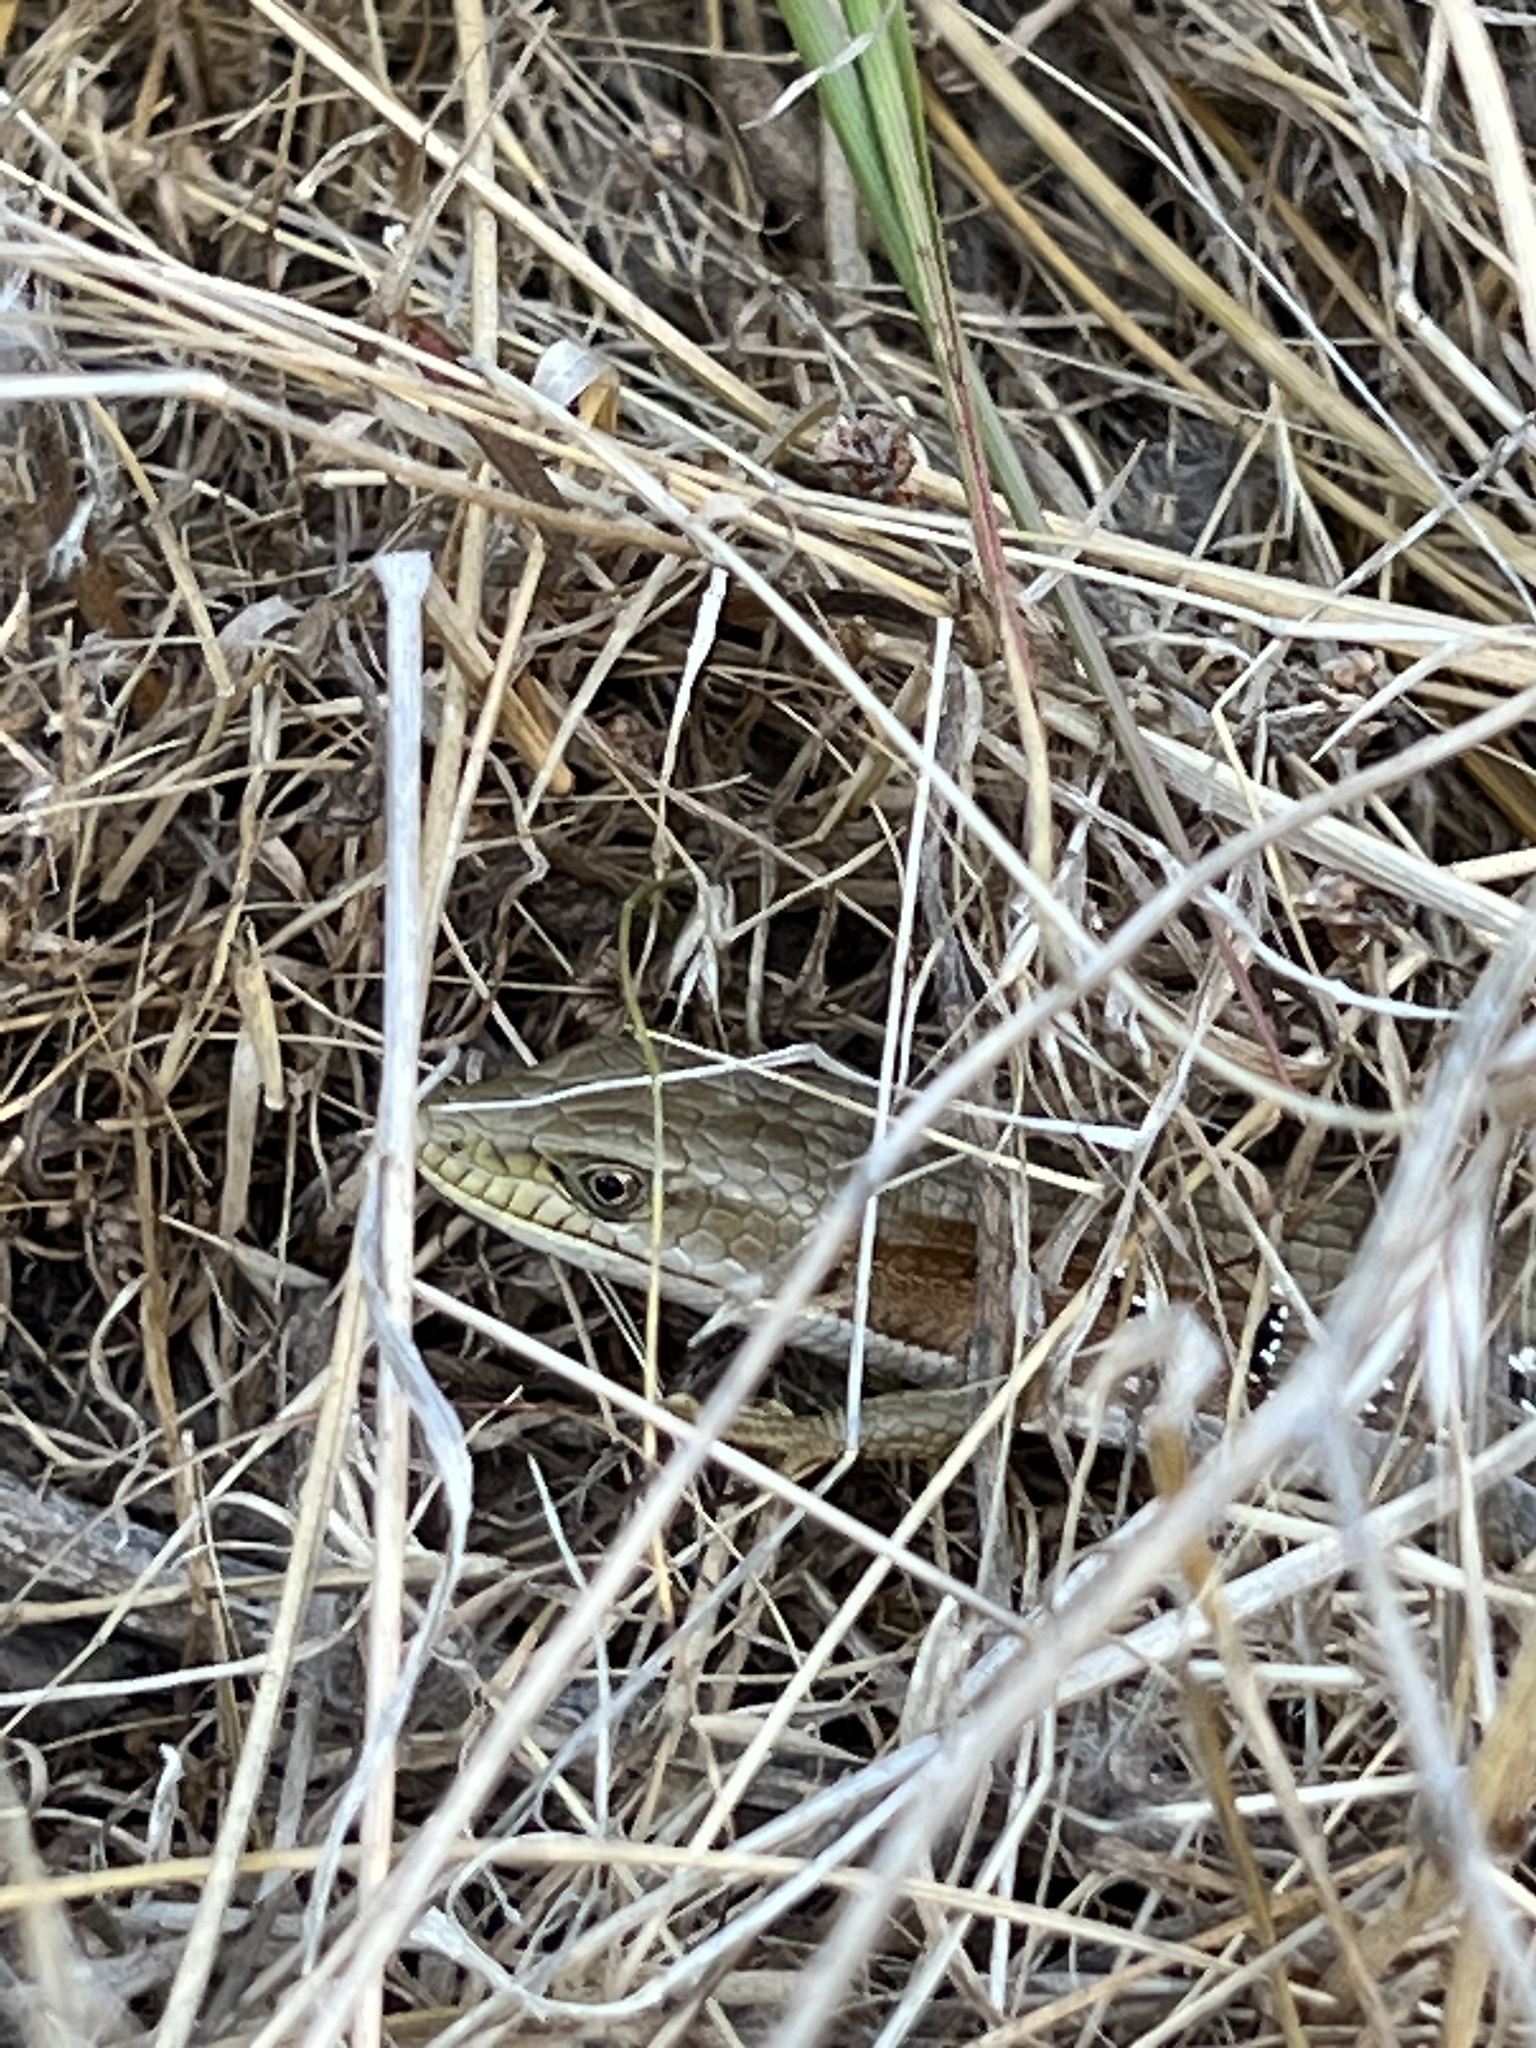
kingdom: Animalia
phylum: Chordata
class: Squamata
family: Anguidae
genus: Elgaria
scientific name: Elgaria multicarinata
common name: Southern alligator lizard
